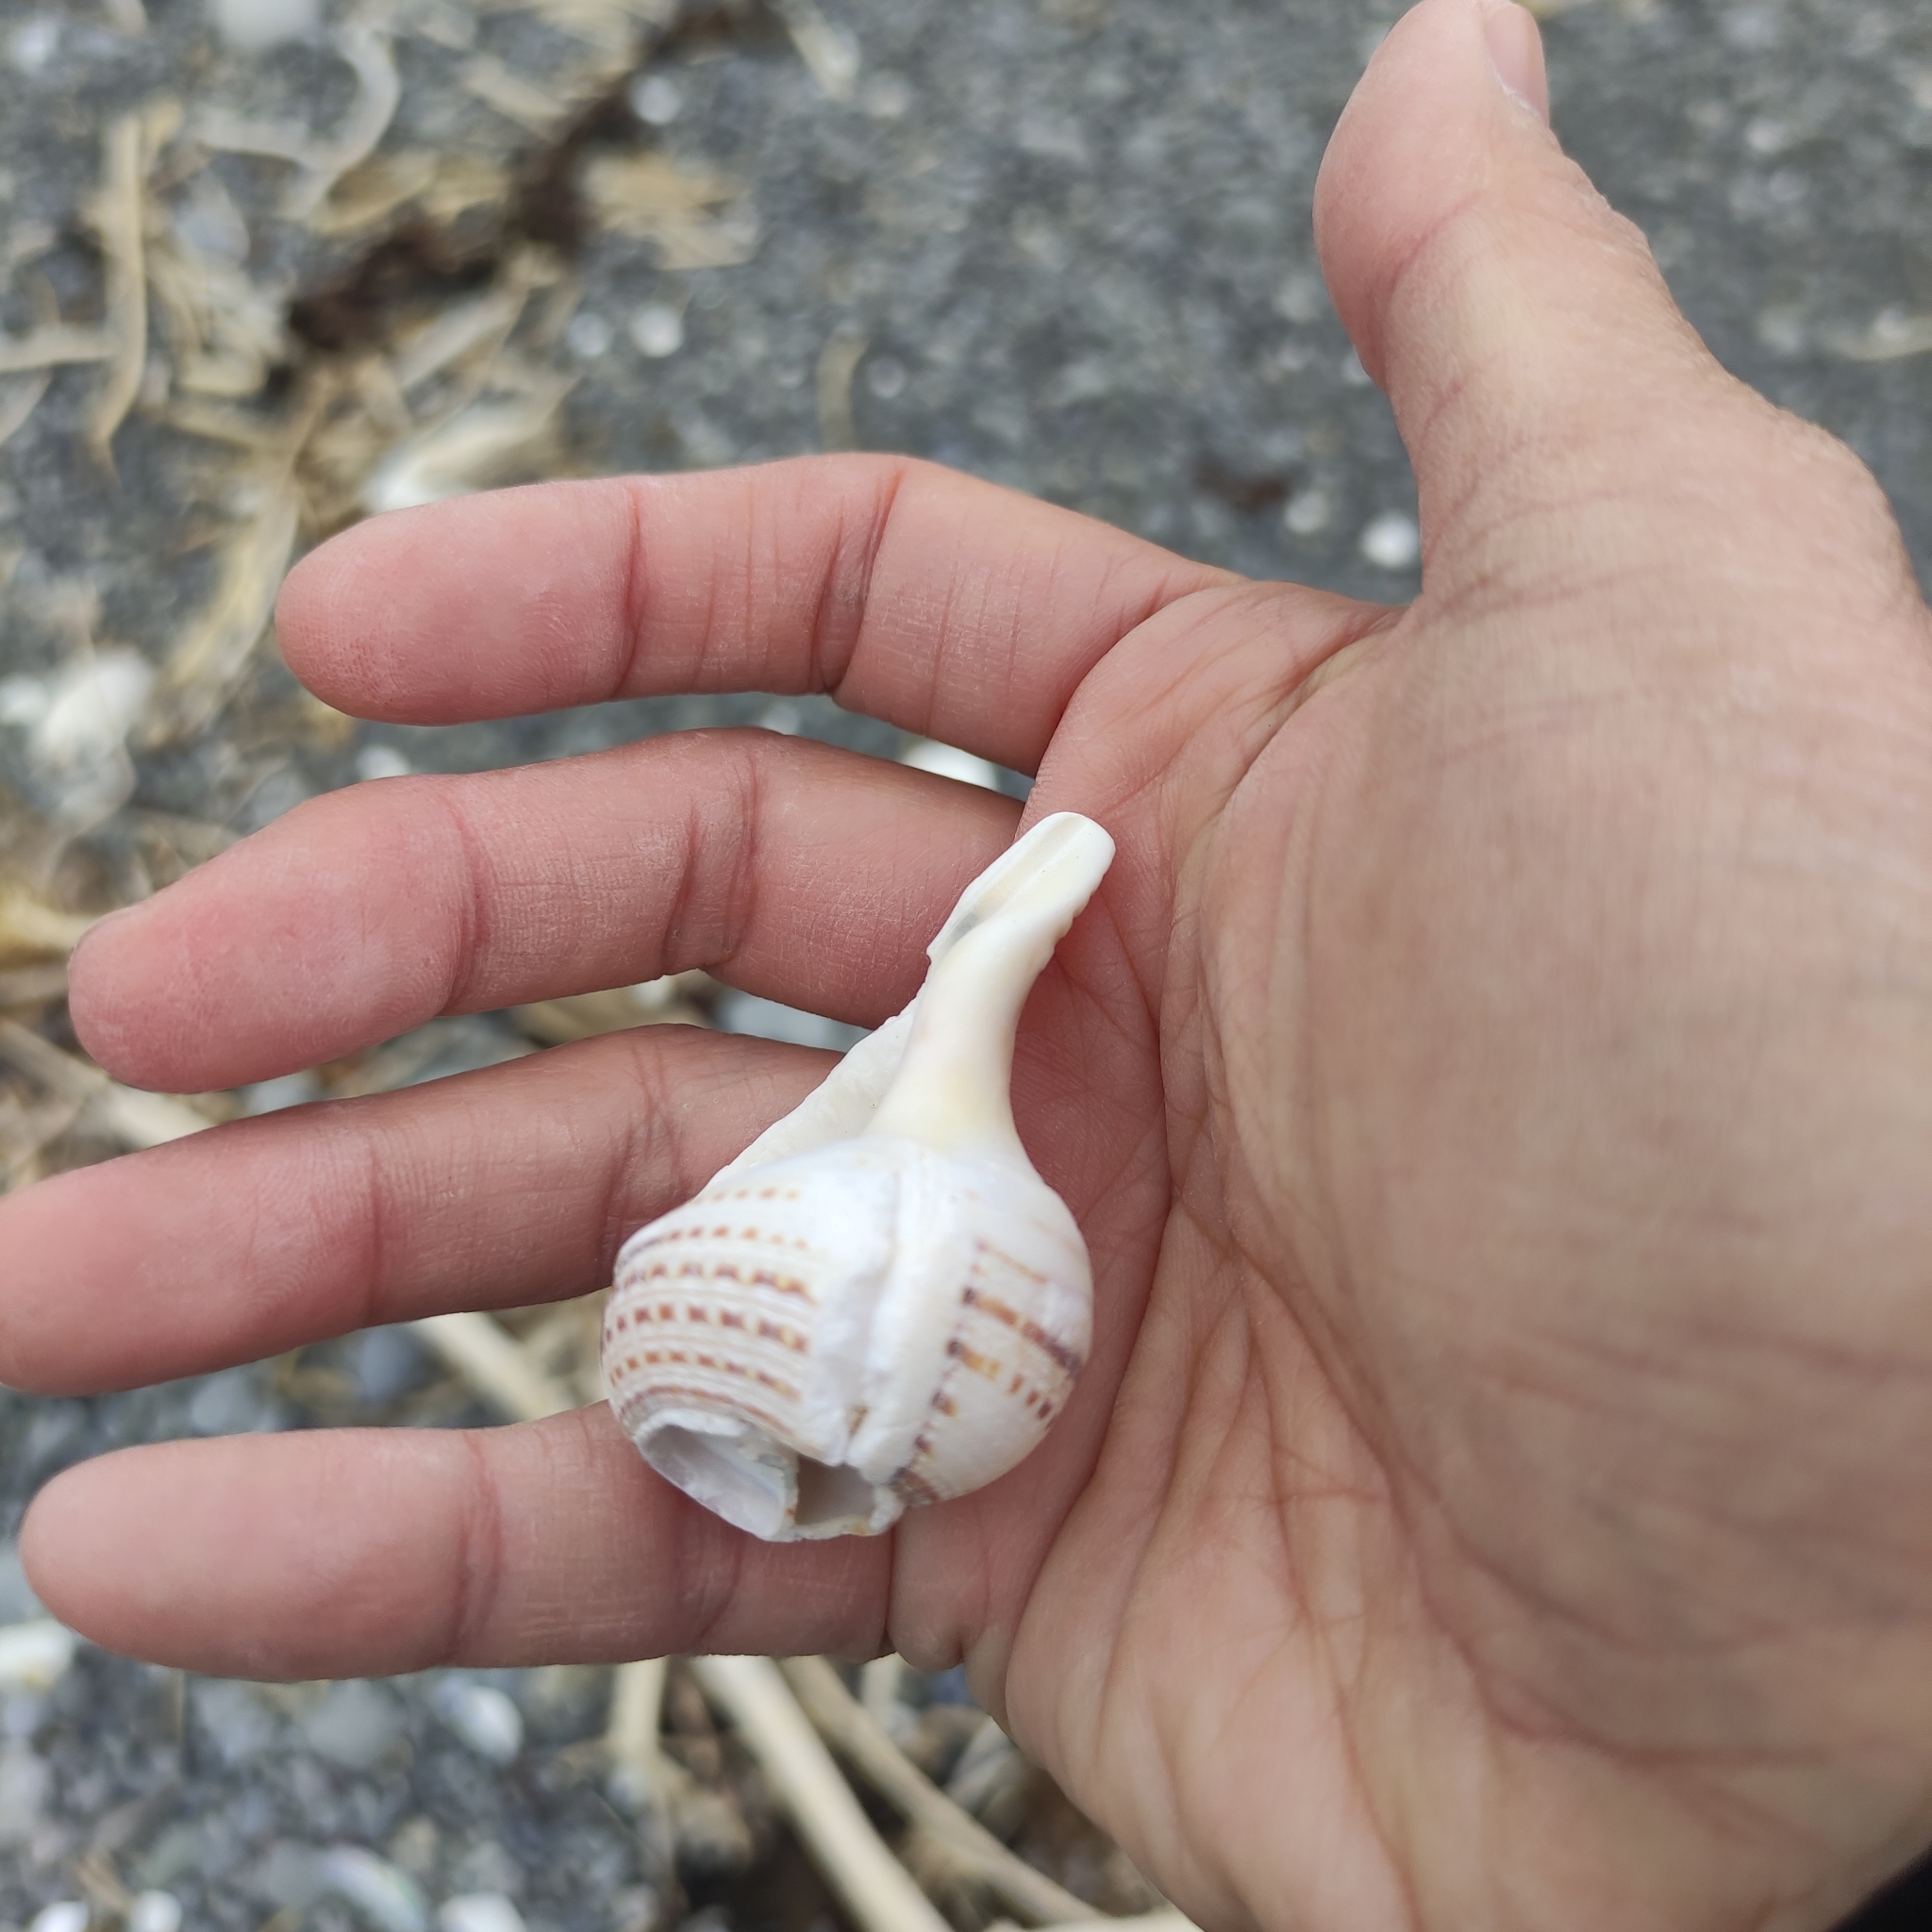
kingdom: Animalia
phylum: Mollusca
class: Gastropoda
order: Littorinimorpha
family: Cymatiidae
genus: Argobuccinum
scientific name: Argobuccinum pustulosum
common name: Pustular triton
